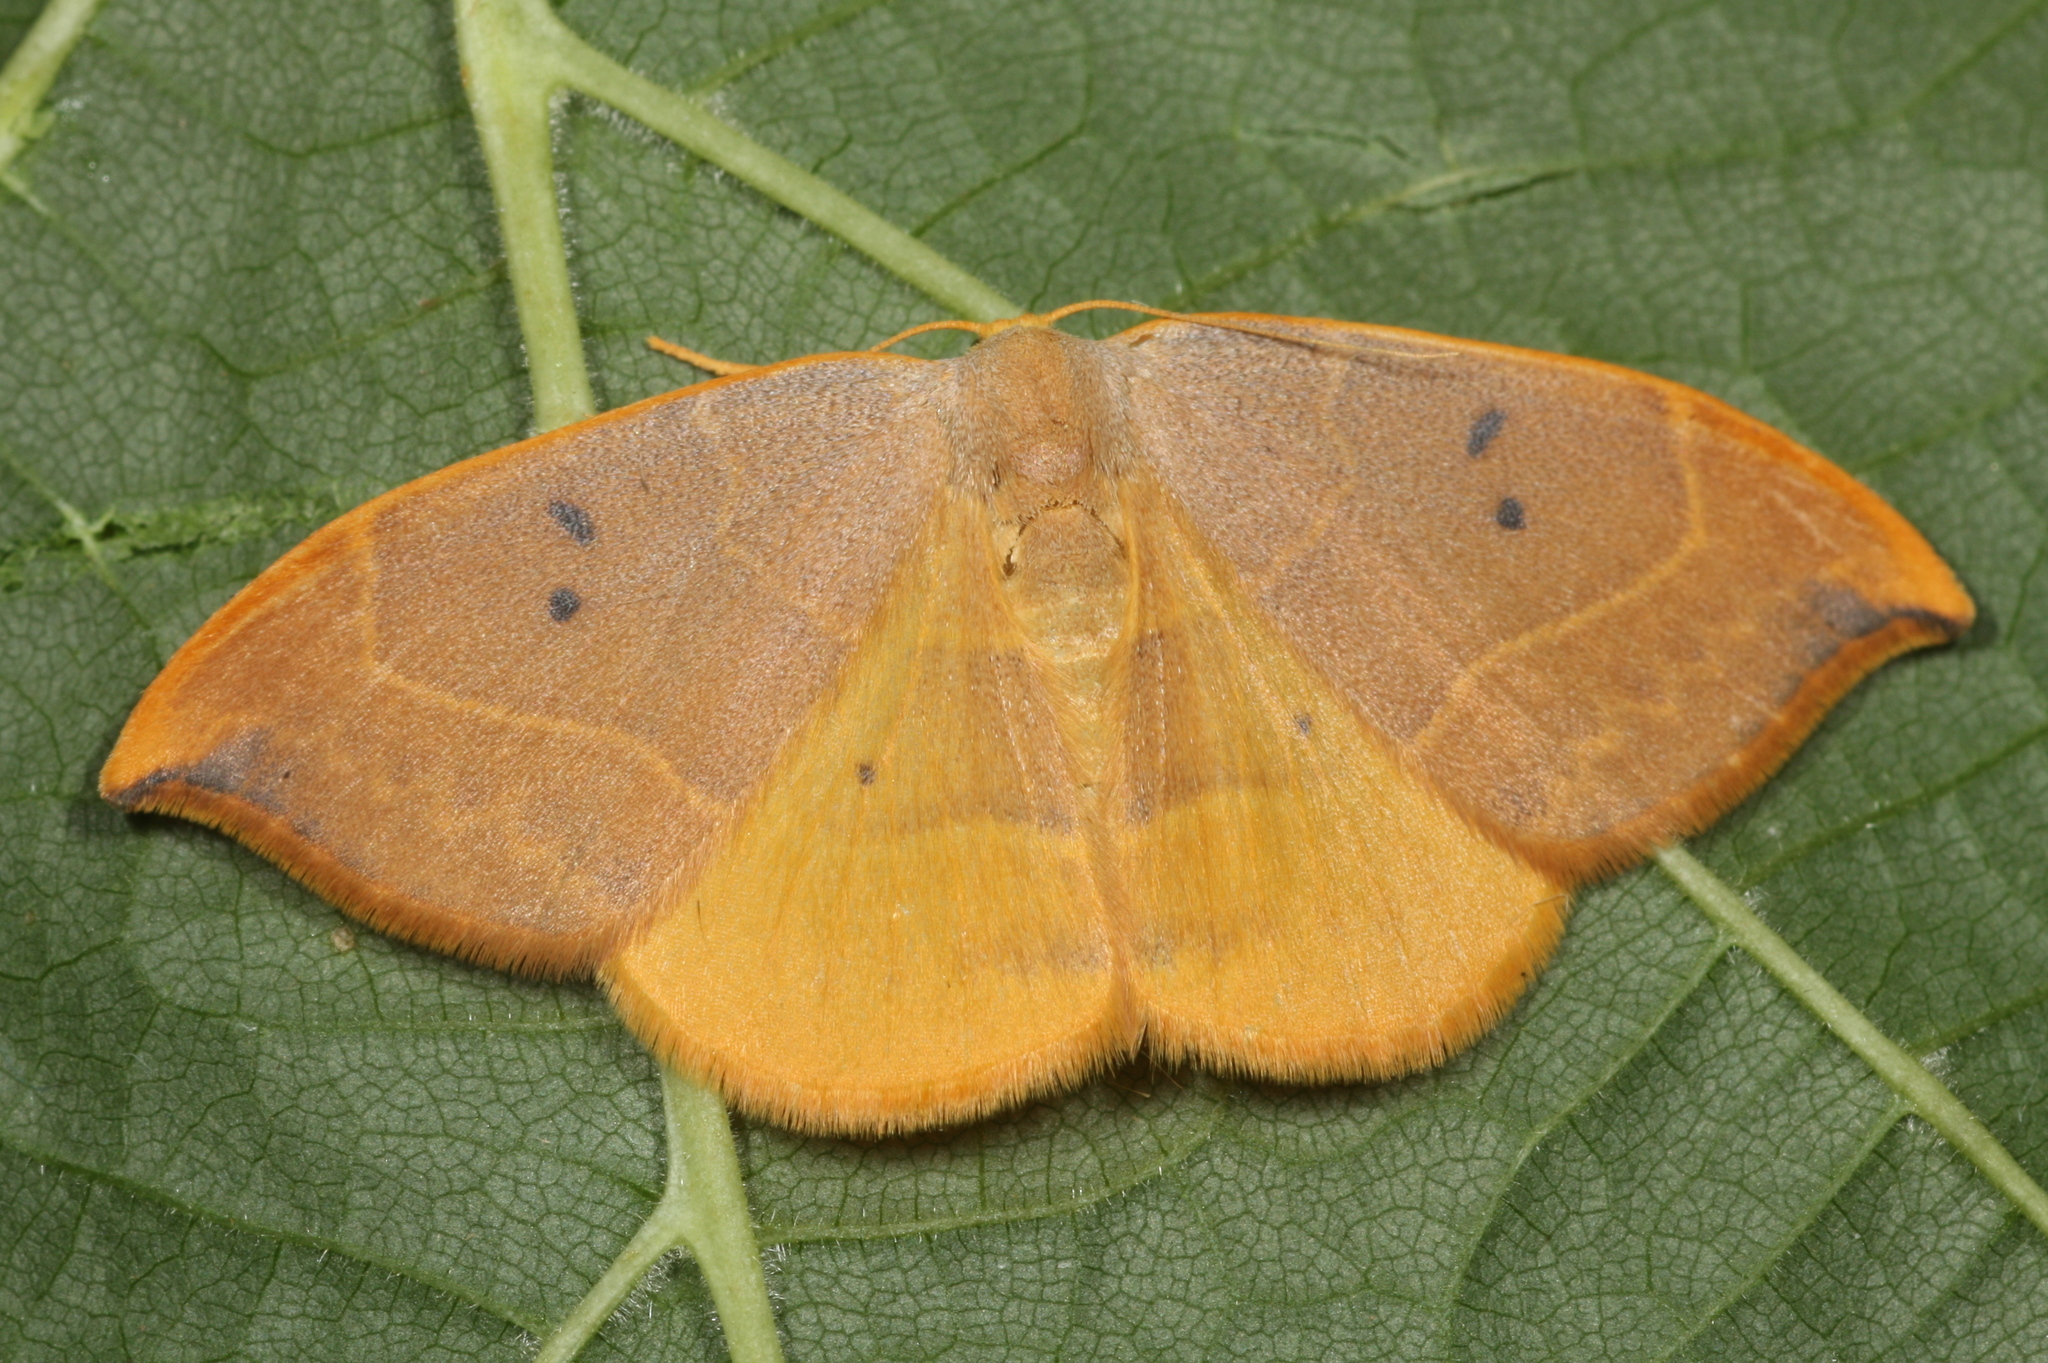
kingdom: Animalia
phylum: Arthropoda
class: Insecta
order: Lepidoptera
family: Drepanidae
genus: Watsonalla
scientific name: Watsonalla binaria
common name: Oak hook-tip
